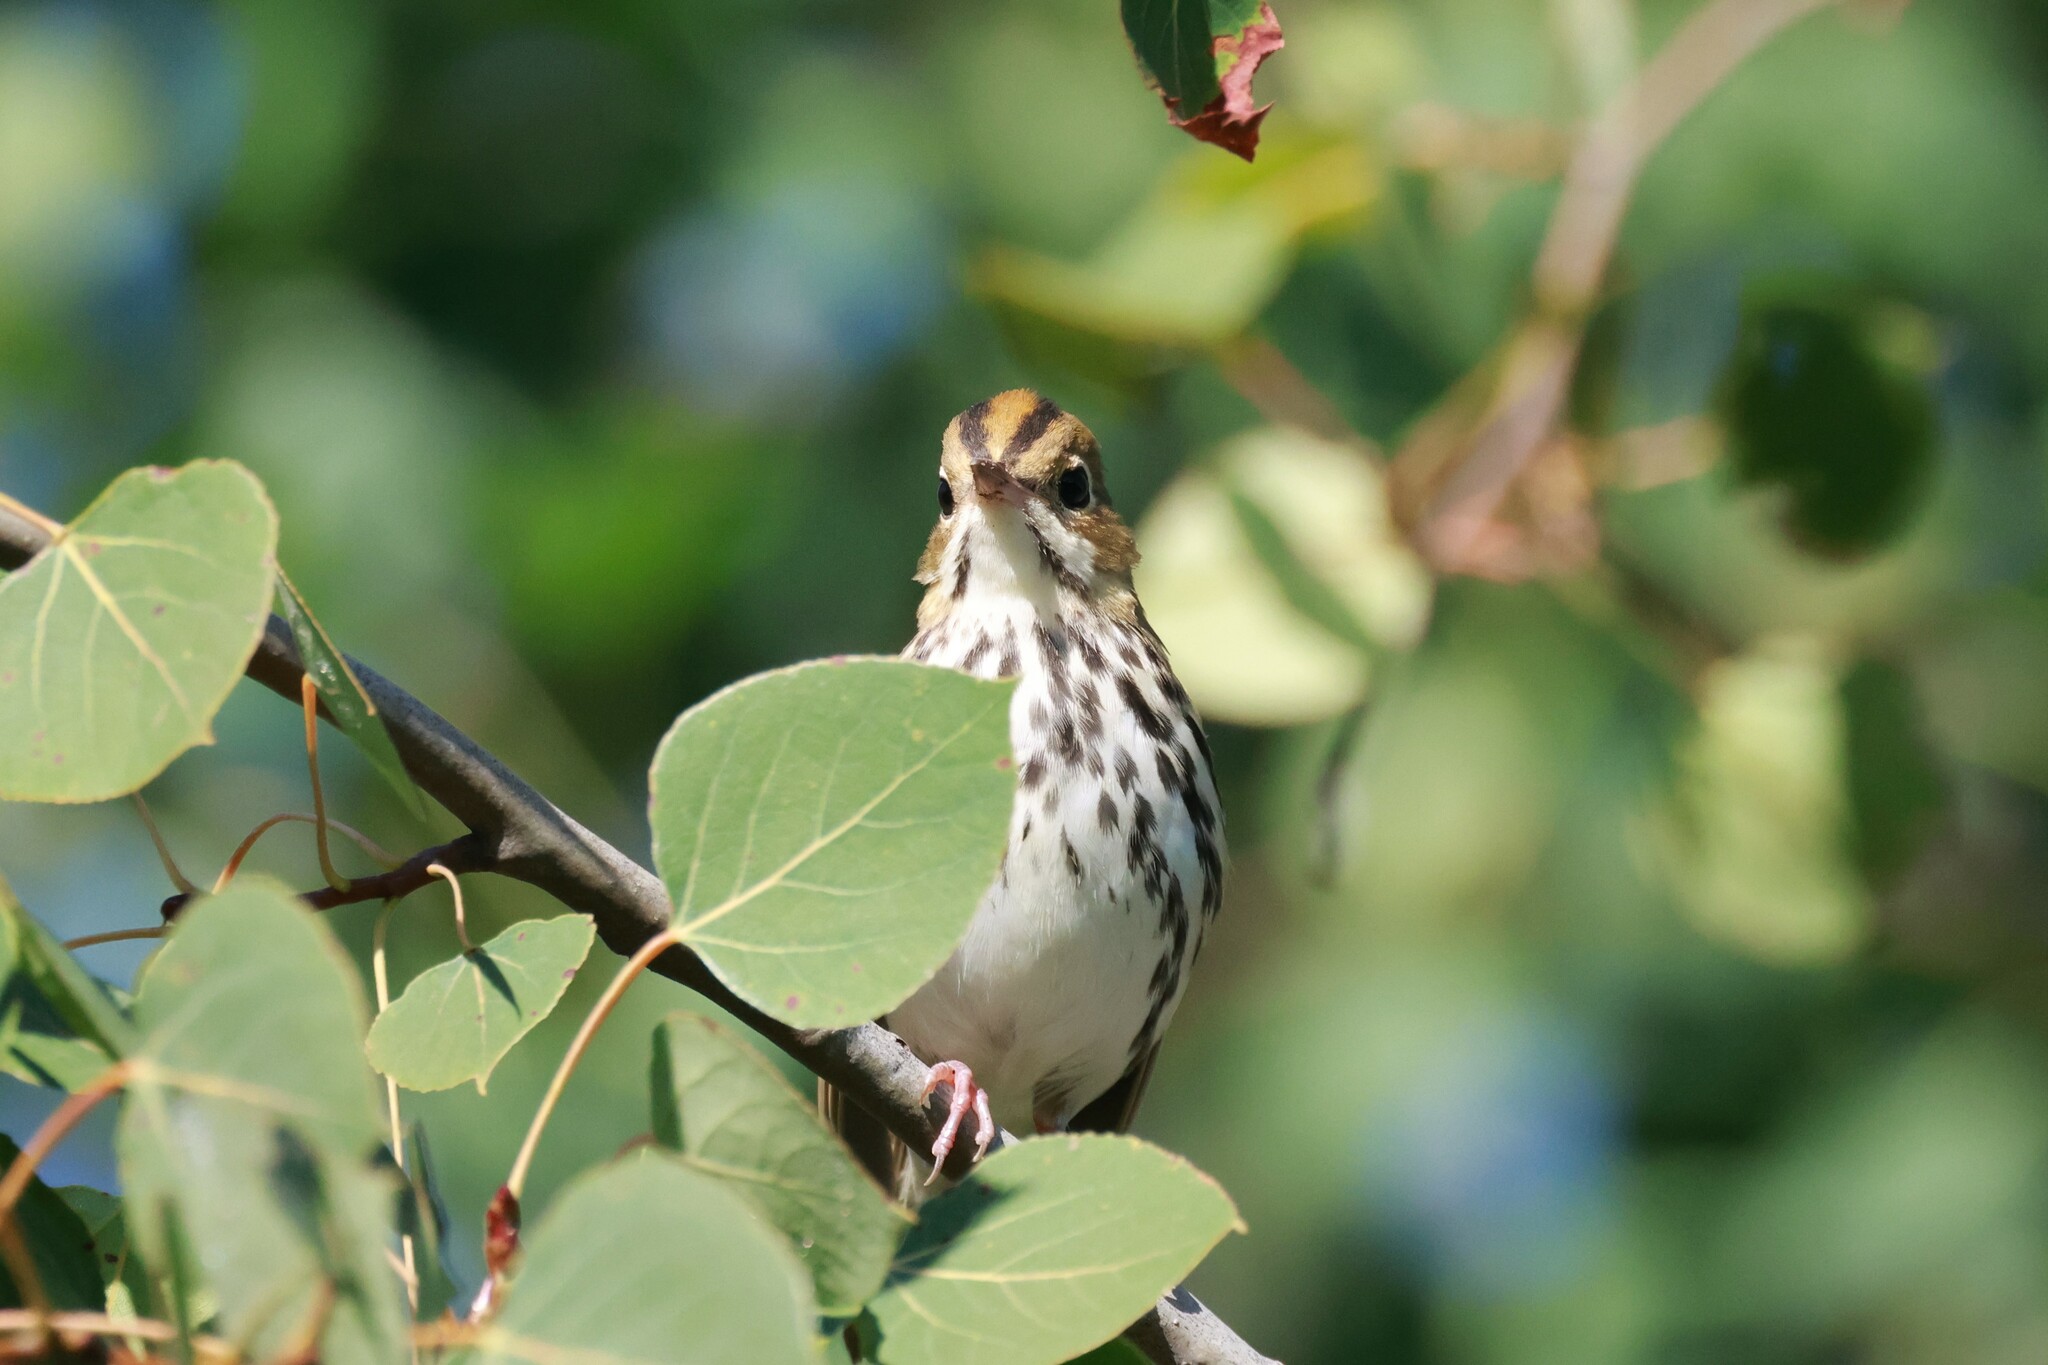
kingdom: Animalia
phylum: Chordata
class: Aves
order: Passeriformes
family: Parulidae
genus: Seiurus
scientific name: Seiurus aurocapilla
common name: Ovenbird
